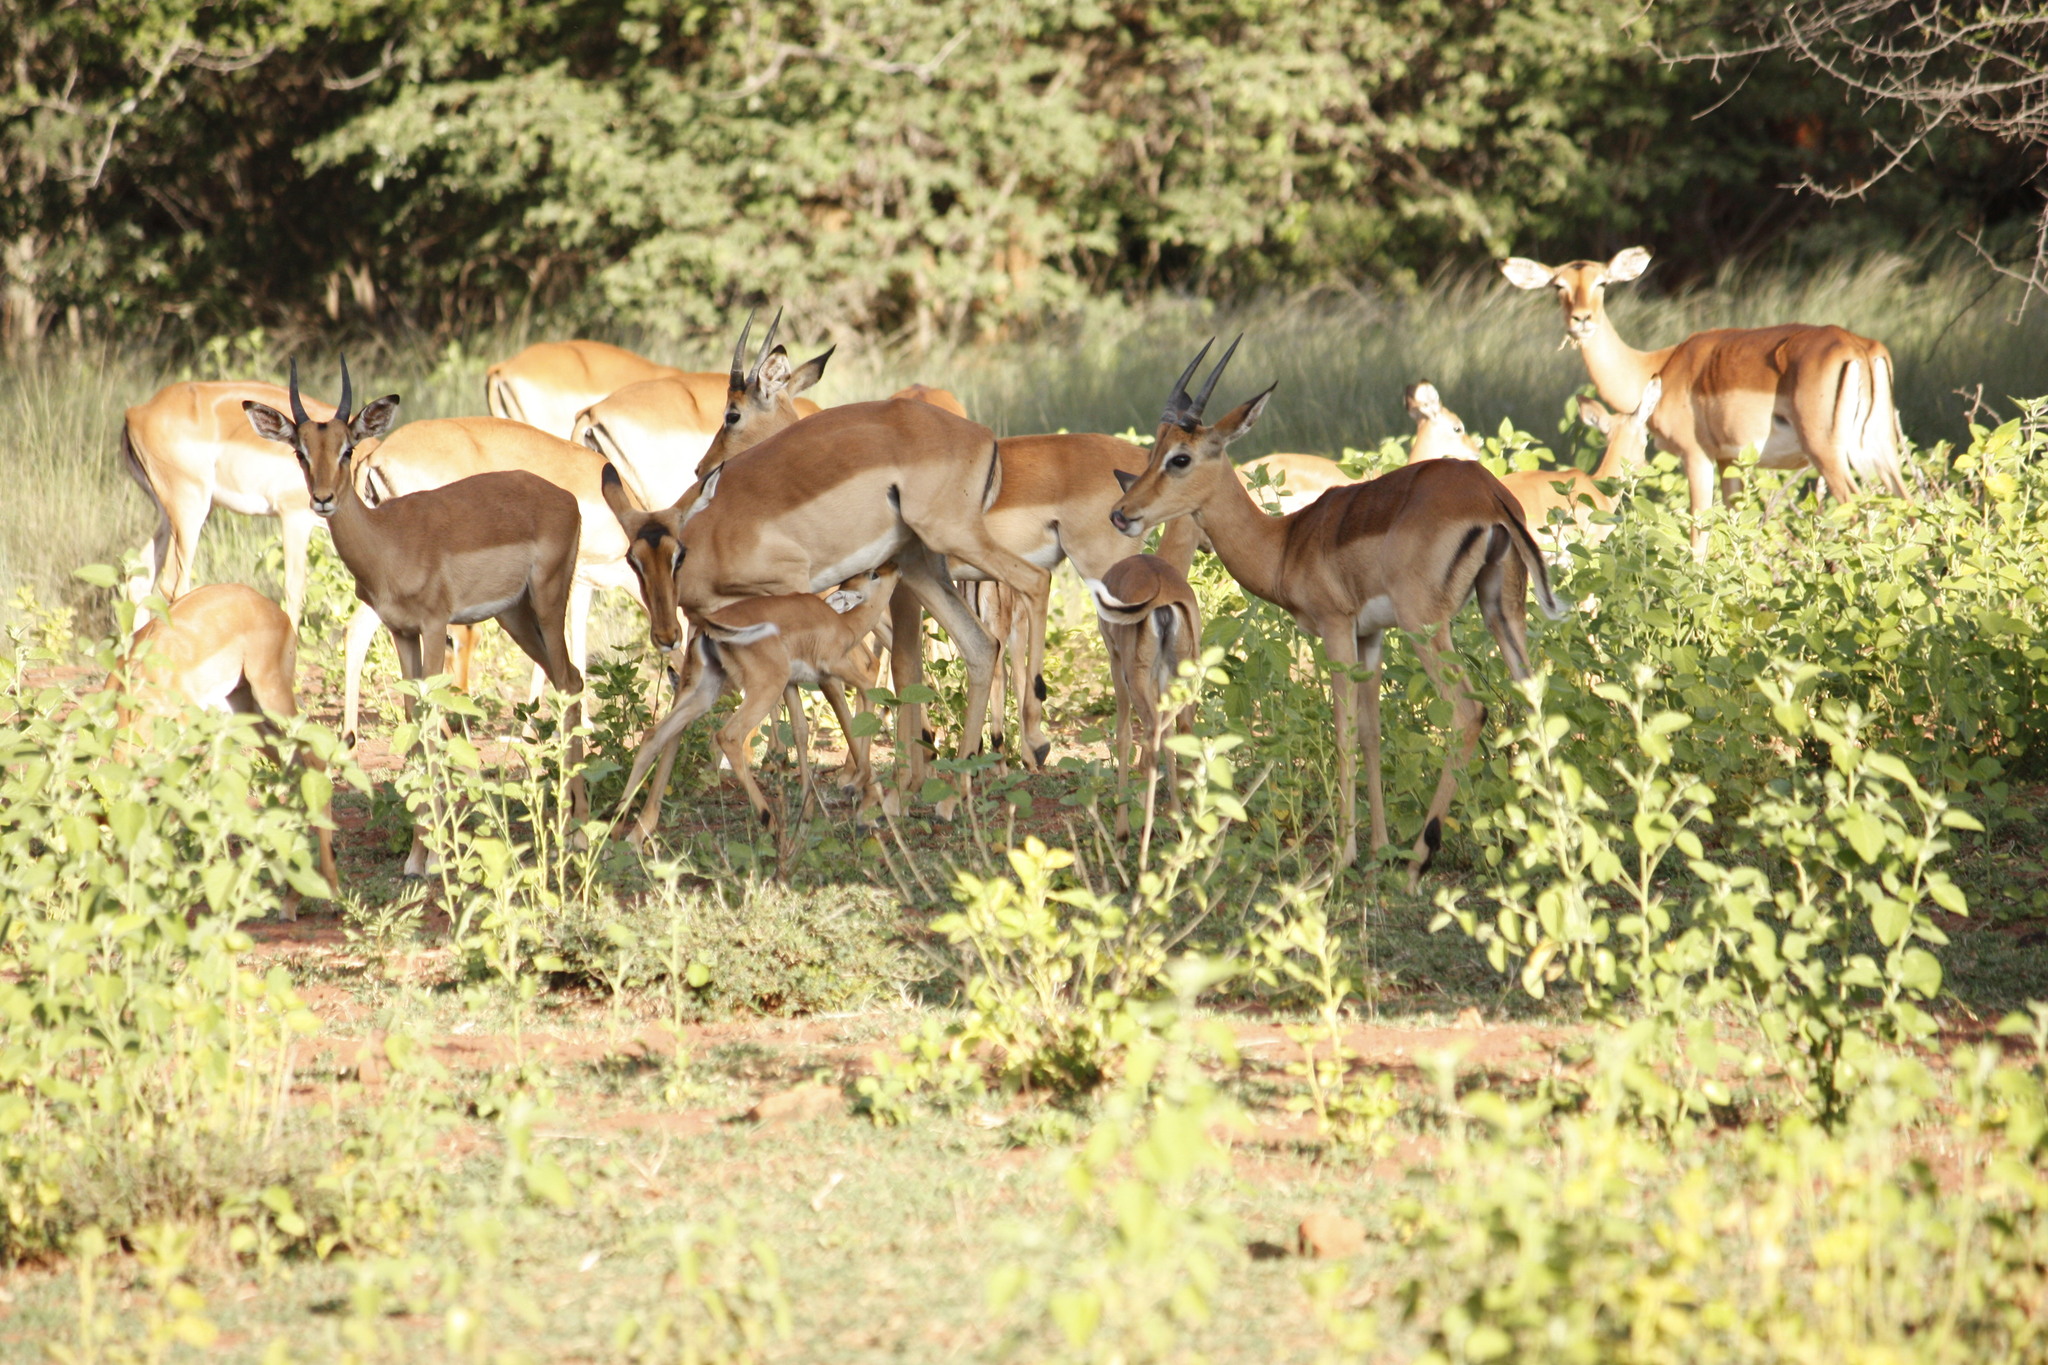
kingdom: Animalia
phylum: Chordata
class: Mammalia
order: Artiodactyla
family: Bovidae
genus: Aepyceros
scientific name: Aepyceros melampus
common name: Impala
